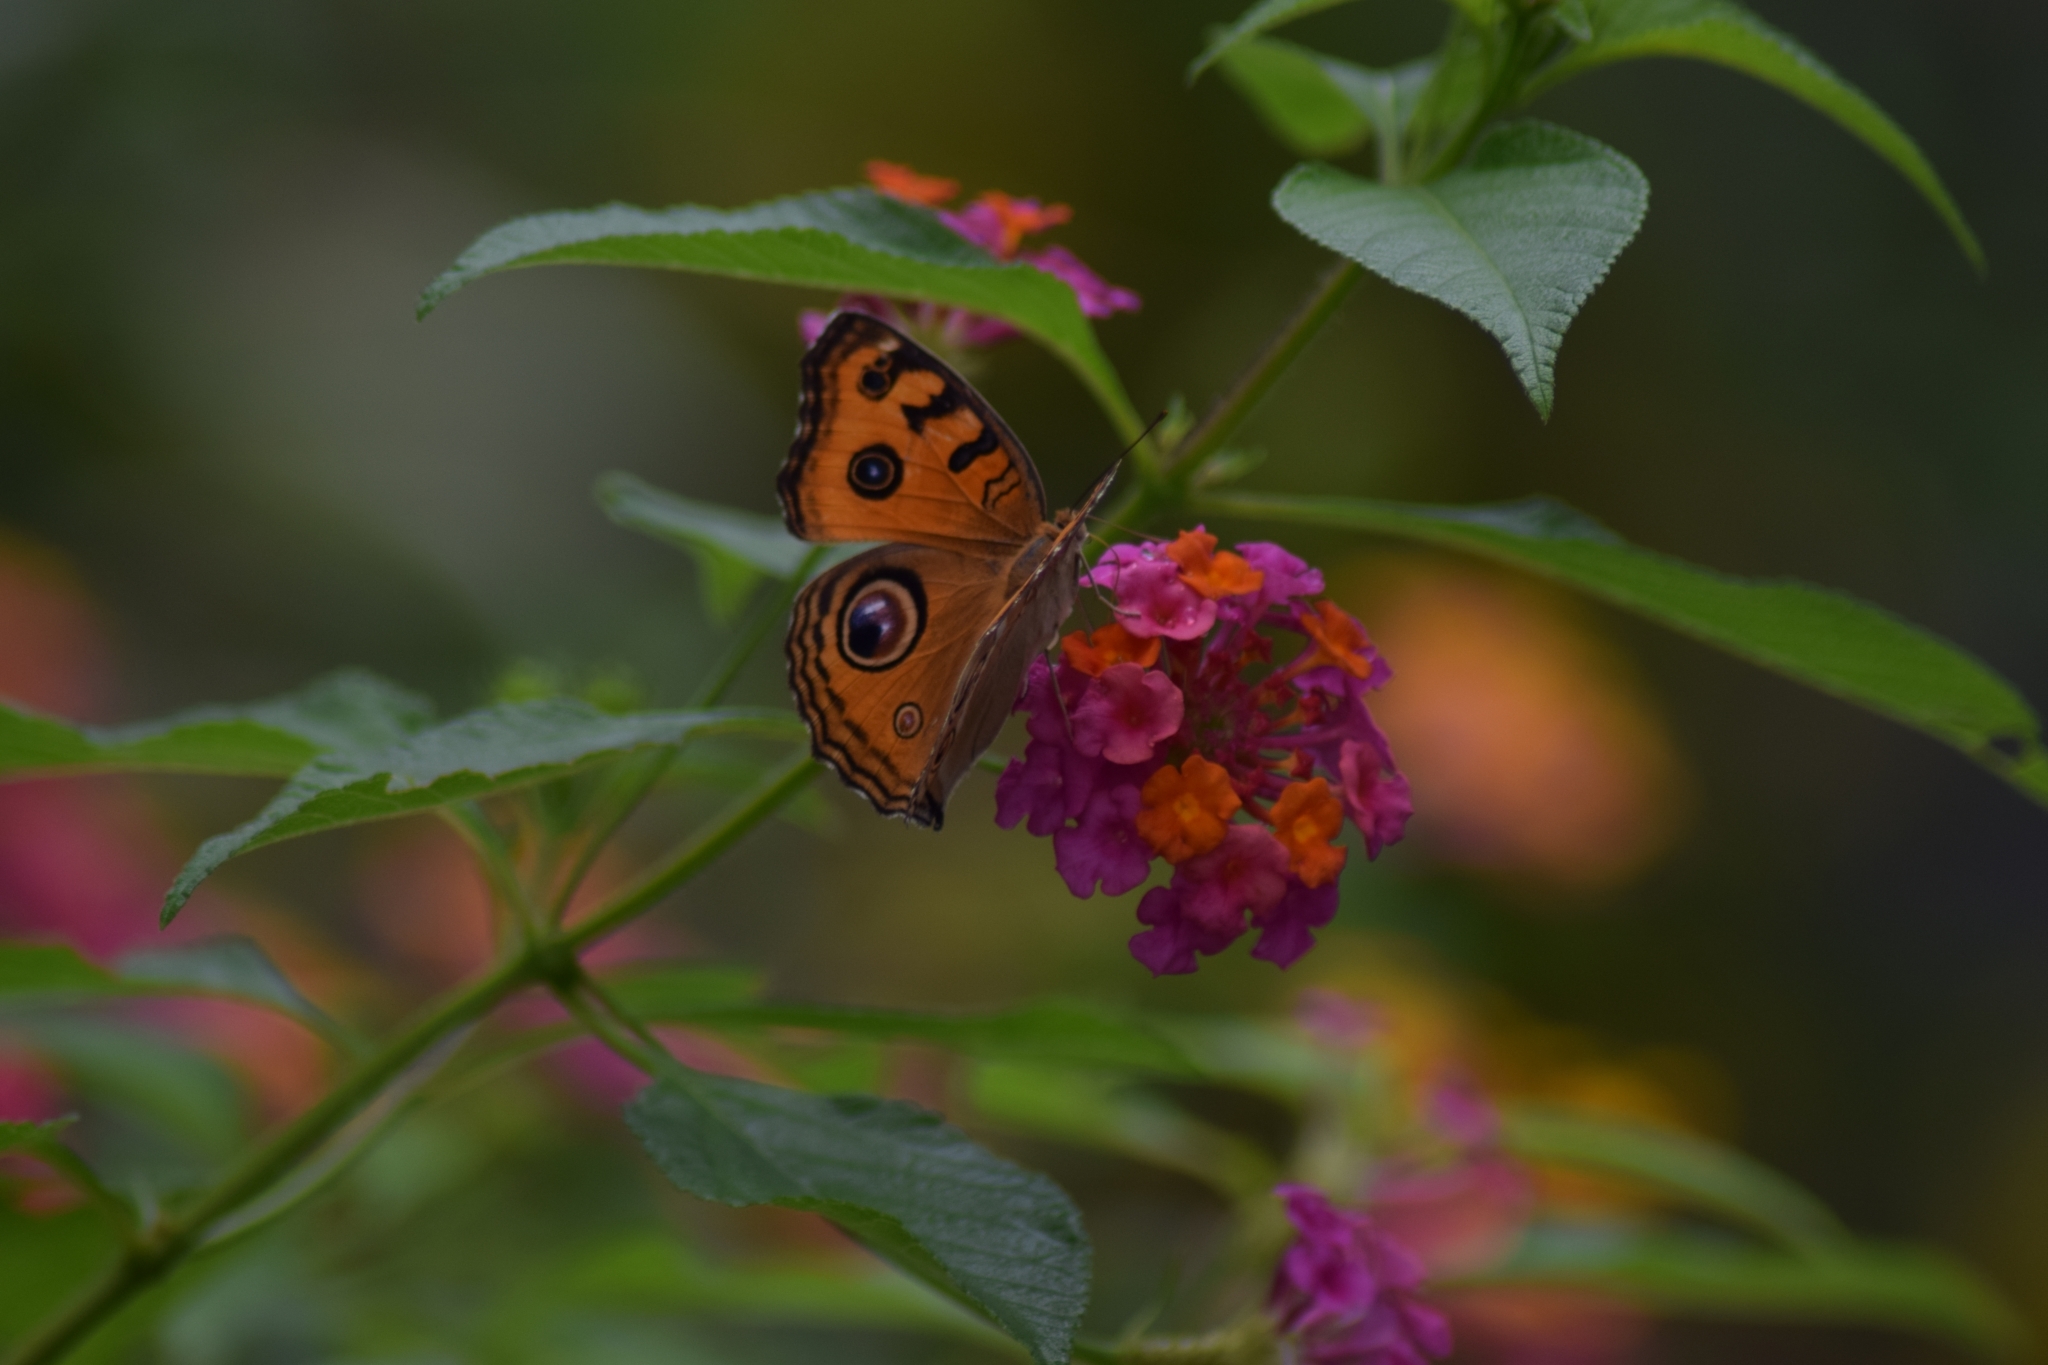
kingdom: Animalia
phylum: Arthropoda
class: Insecta
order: Lepidoptera
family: Nymphalidae
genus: Junonia
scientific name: Junonia almana
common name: Peacock pansy
